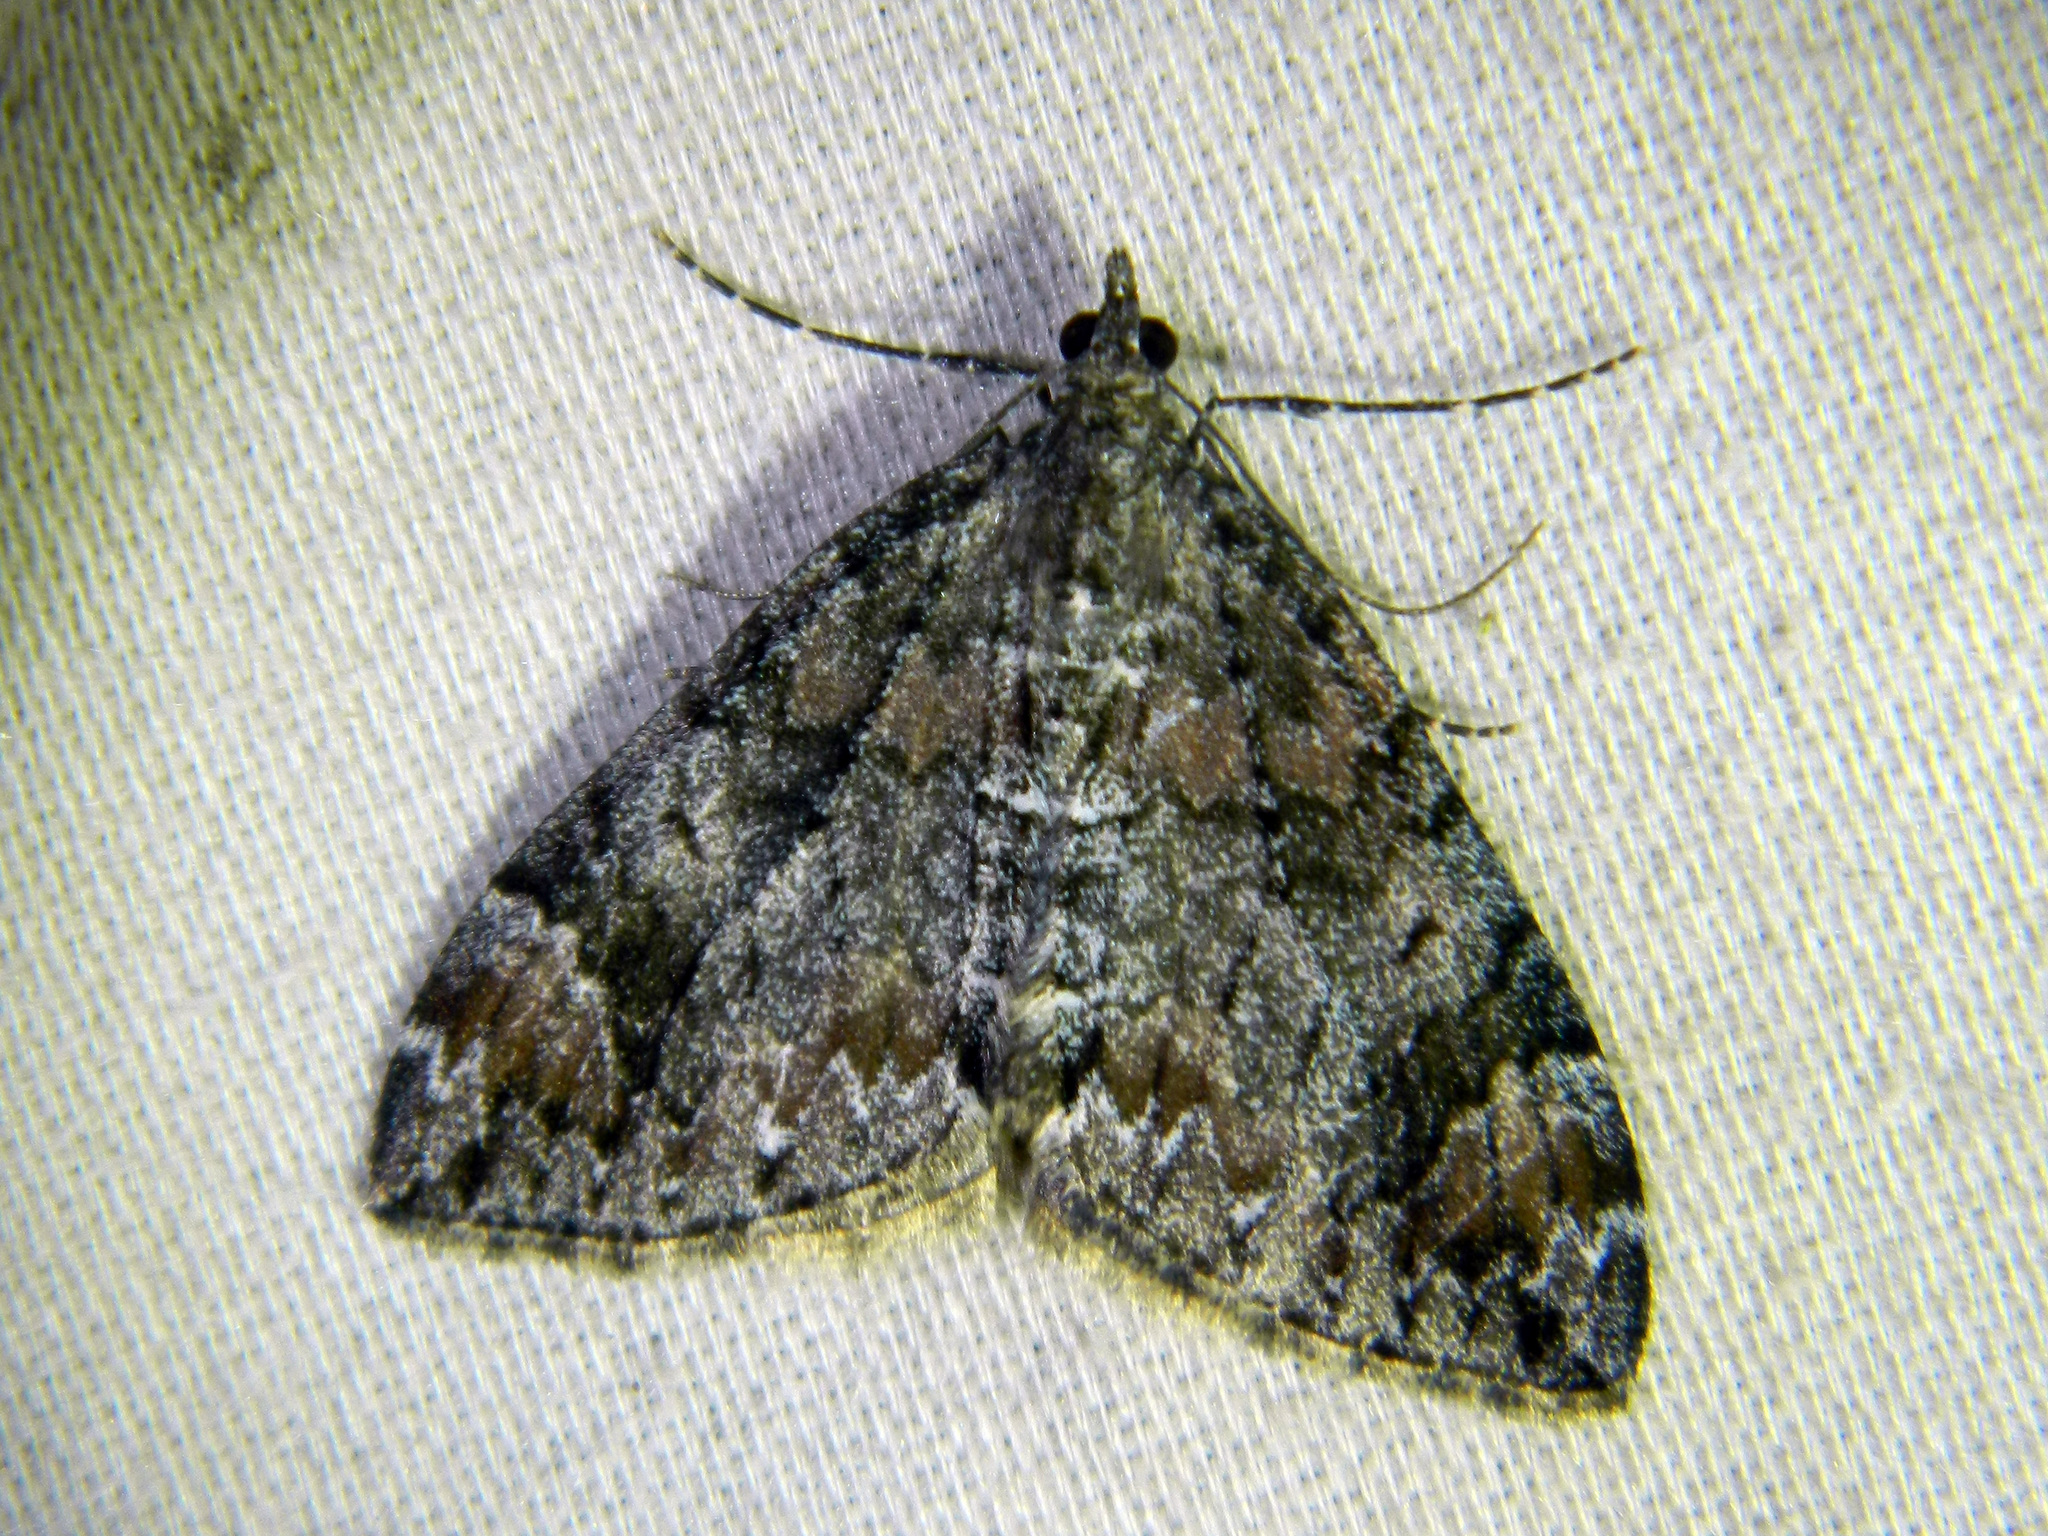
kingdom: Animalia
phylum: Arthropoda
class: Insecta
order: Lepidoptera
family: Geometridae
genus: Dysstroma
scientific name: Dysstroma citrata
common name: Dark marbled carpet
